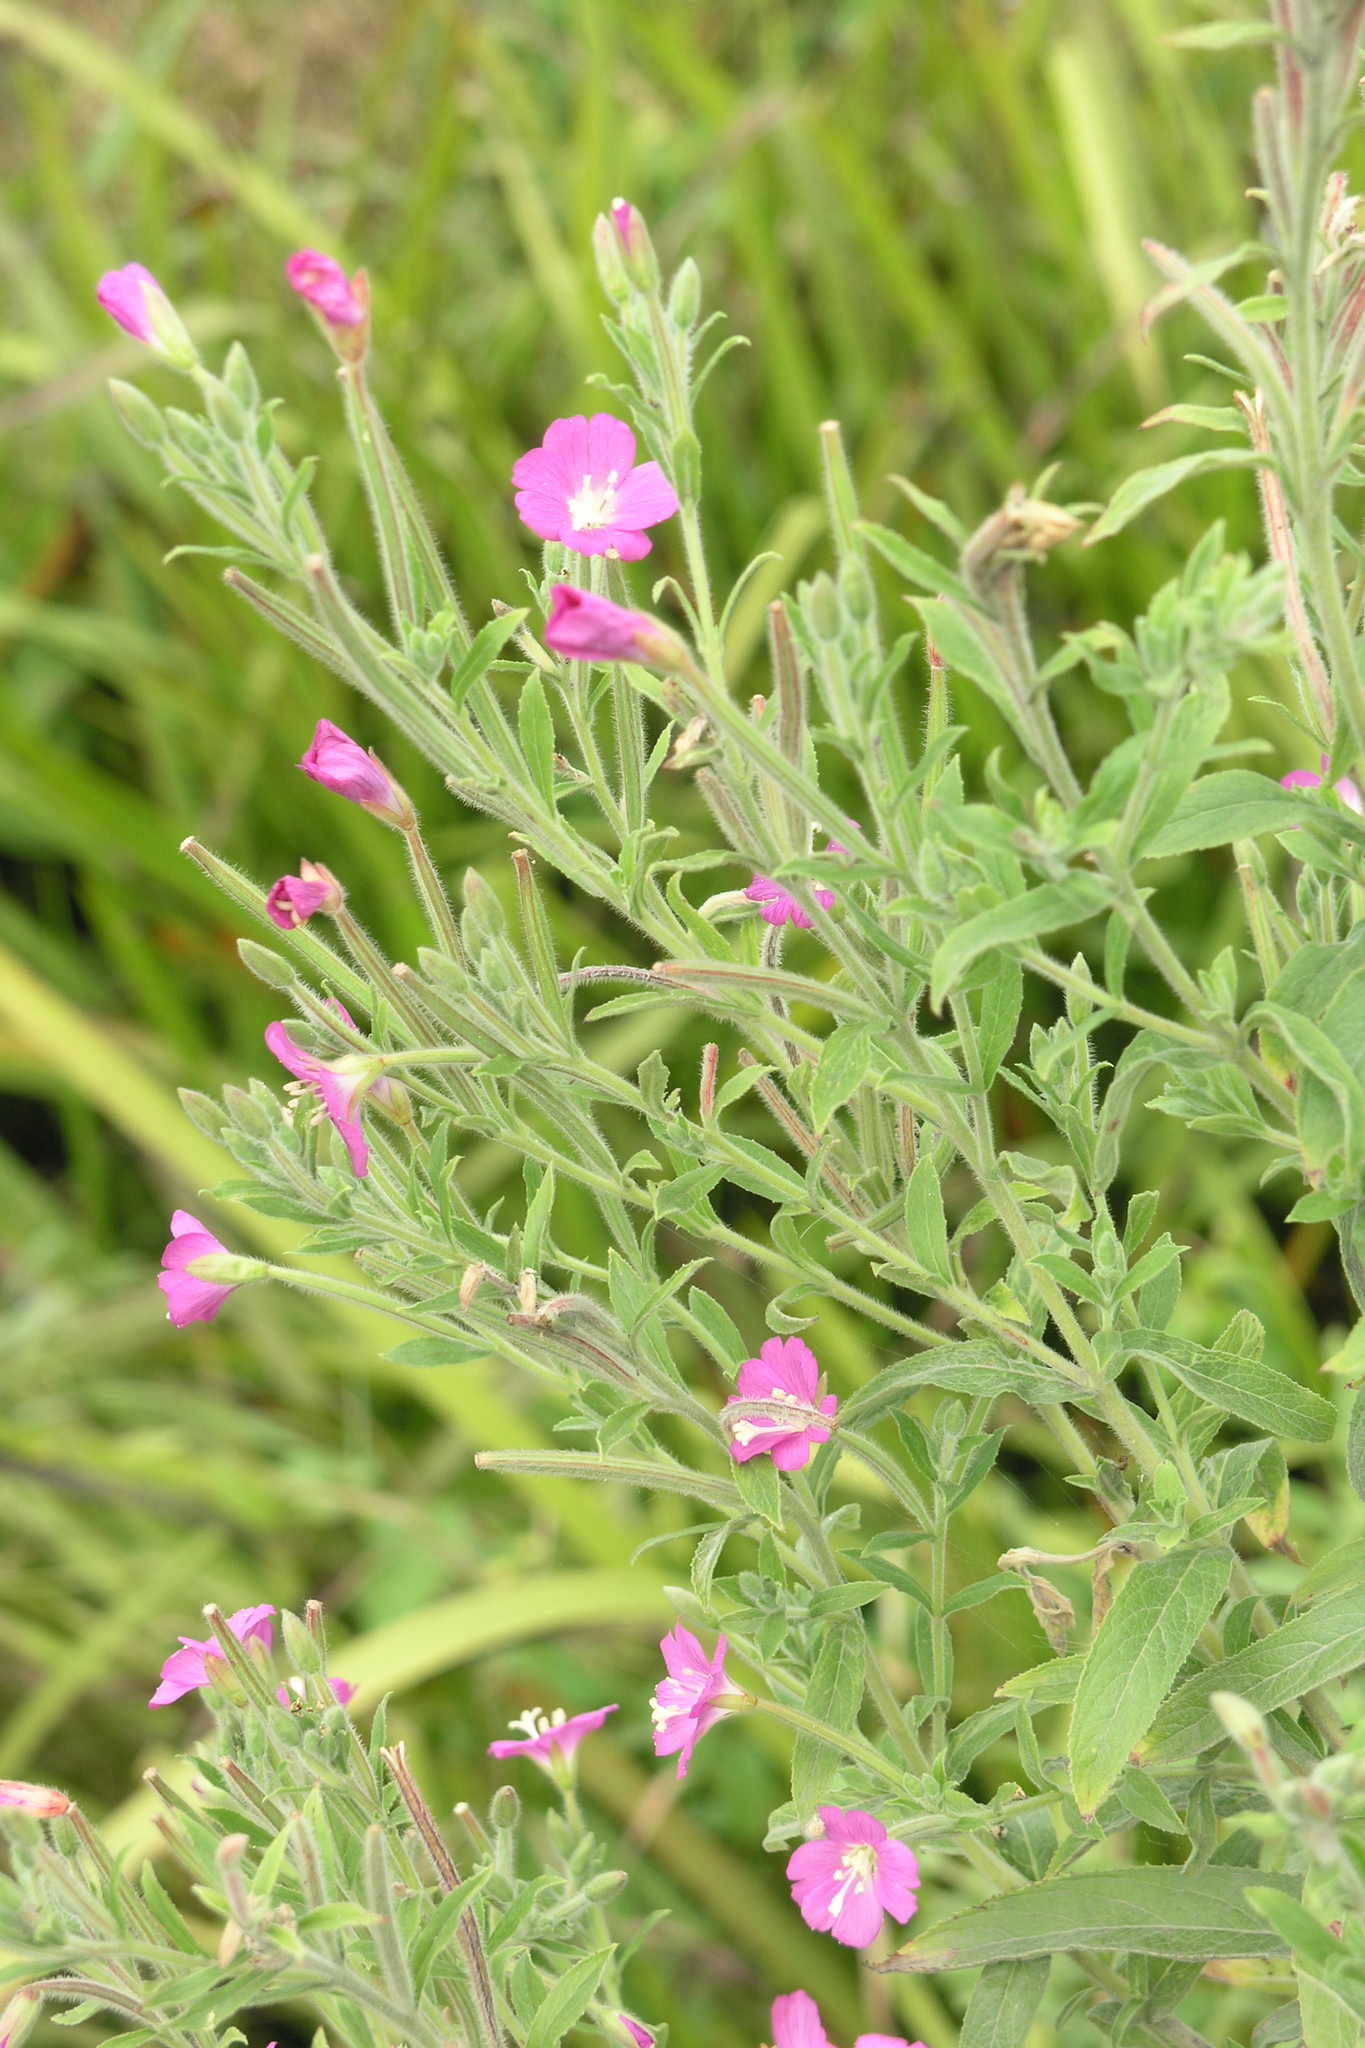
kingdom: Plantae
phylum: Tracheophyta
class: Magnoliopsida
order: Myrtales
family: Onagraceae
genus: Epilobium
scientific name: Epilobium hirsutum
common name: Great willowherb
